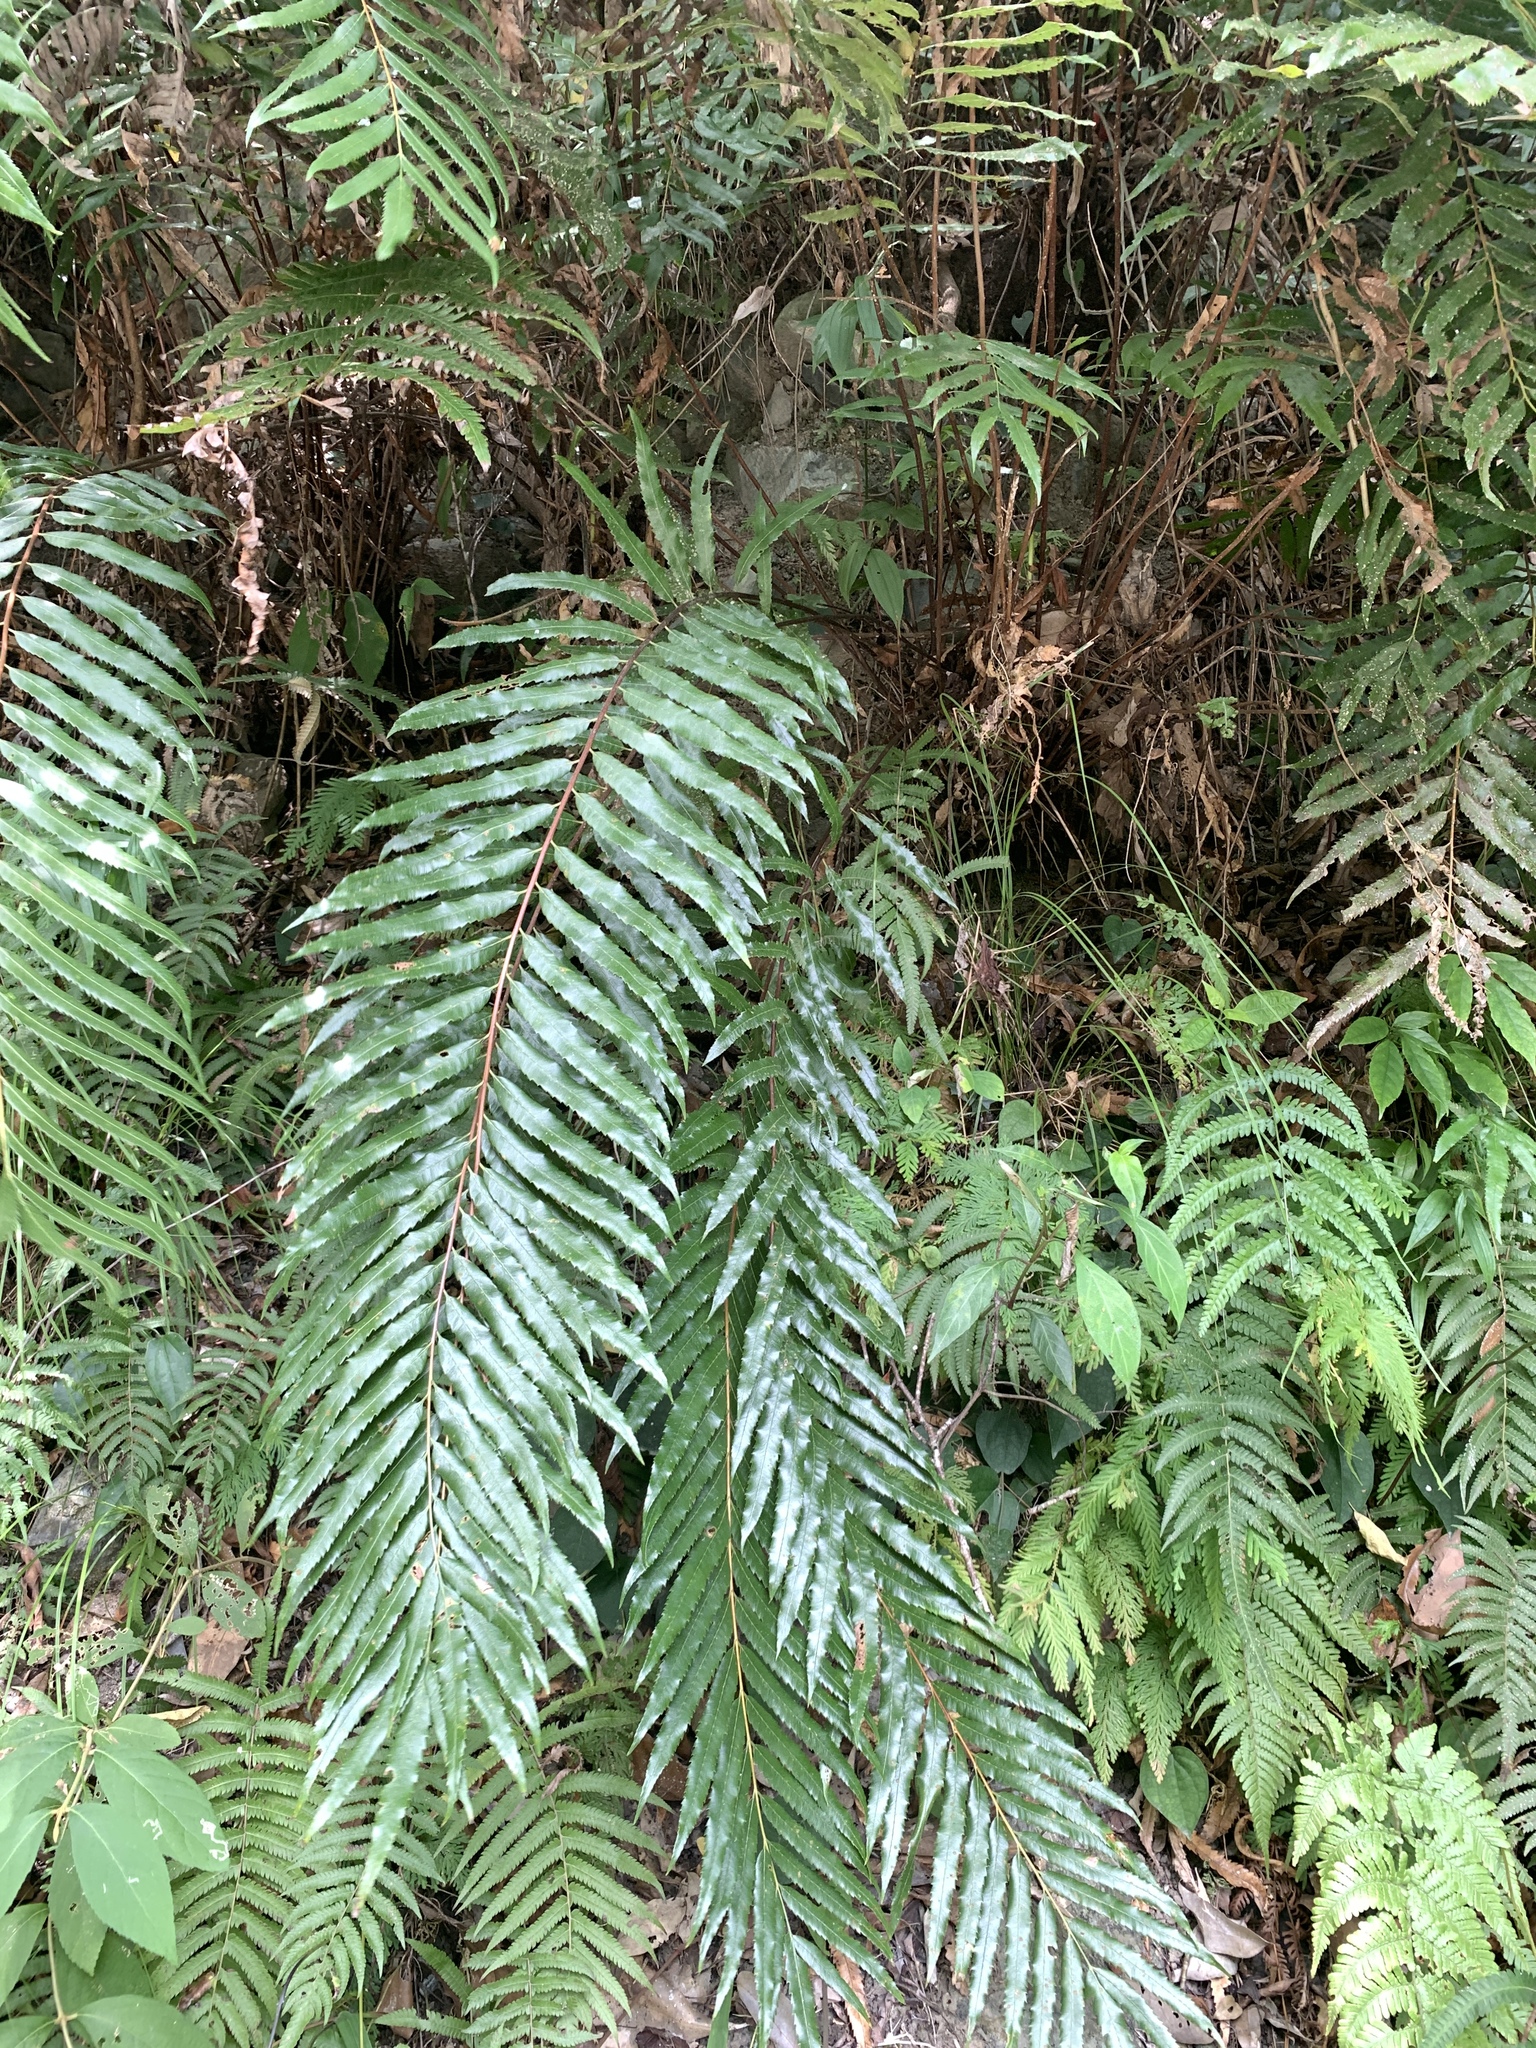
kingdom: Plantae
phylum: Tracheophyta
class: Polypodiopsida
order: Osmundales
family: Osmundaceae
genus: Plenasium
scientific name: Plenasium banksiifolium
